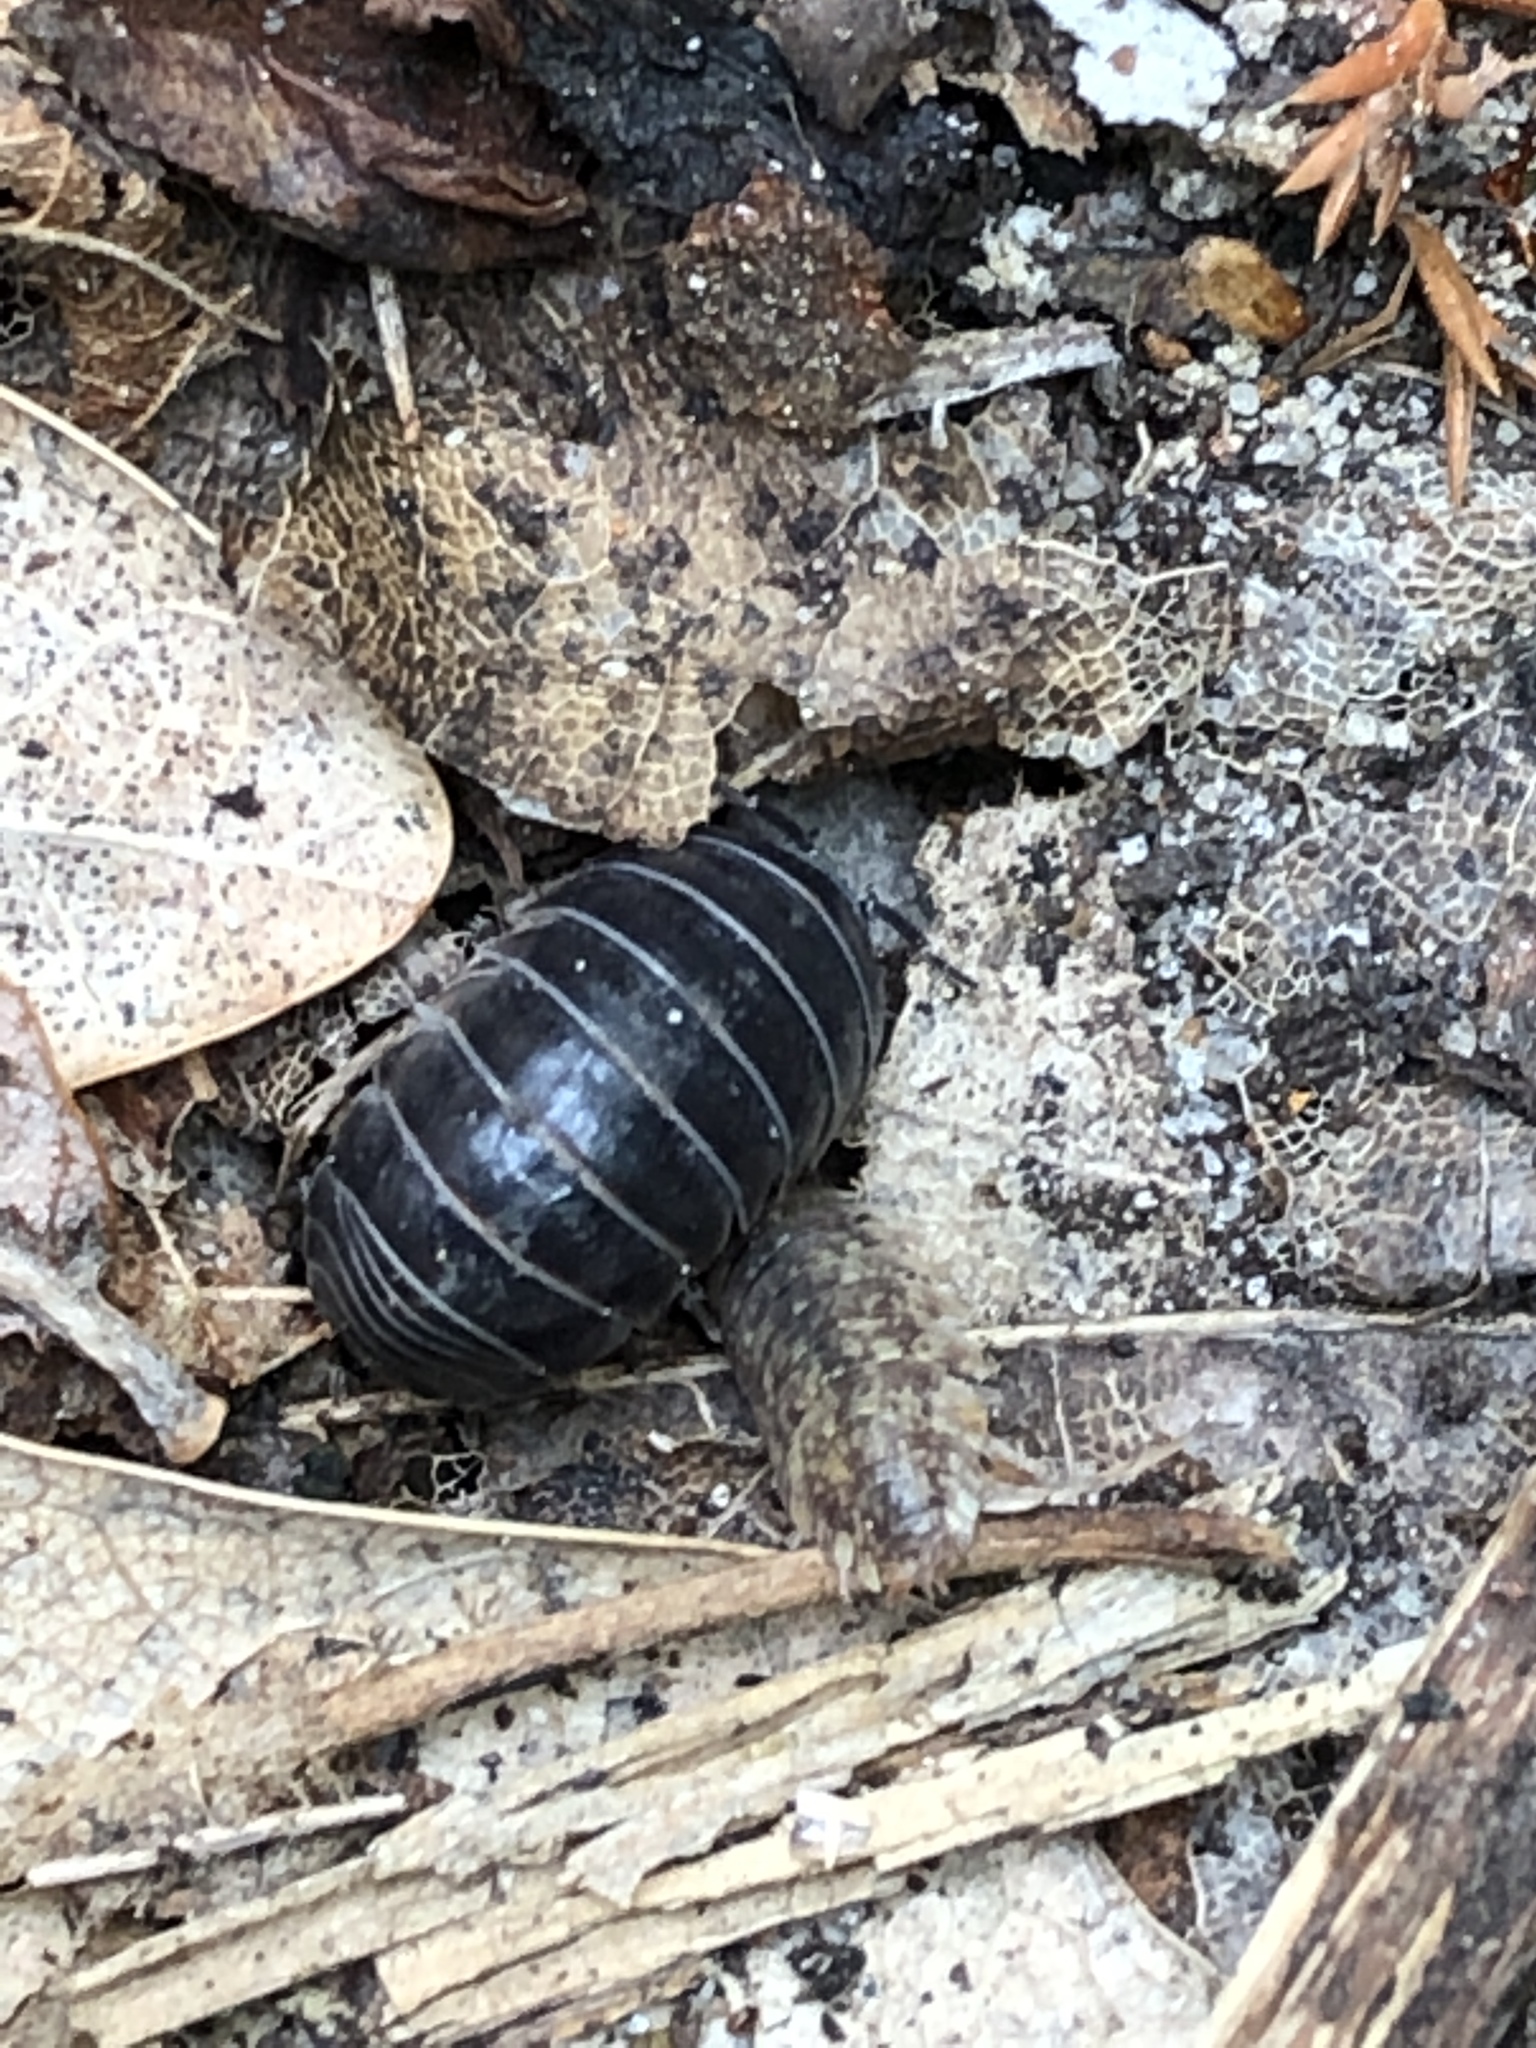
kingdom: Animalia
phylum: Arthropoda
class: Malacostraca
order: Isopoda
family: Armadillidiidae
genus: Armadillidium
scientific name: Armadillidium vulgare
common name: Common pill woodlouse
